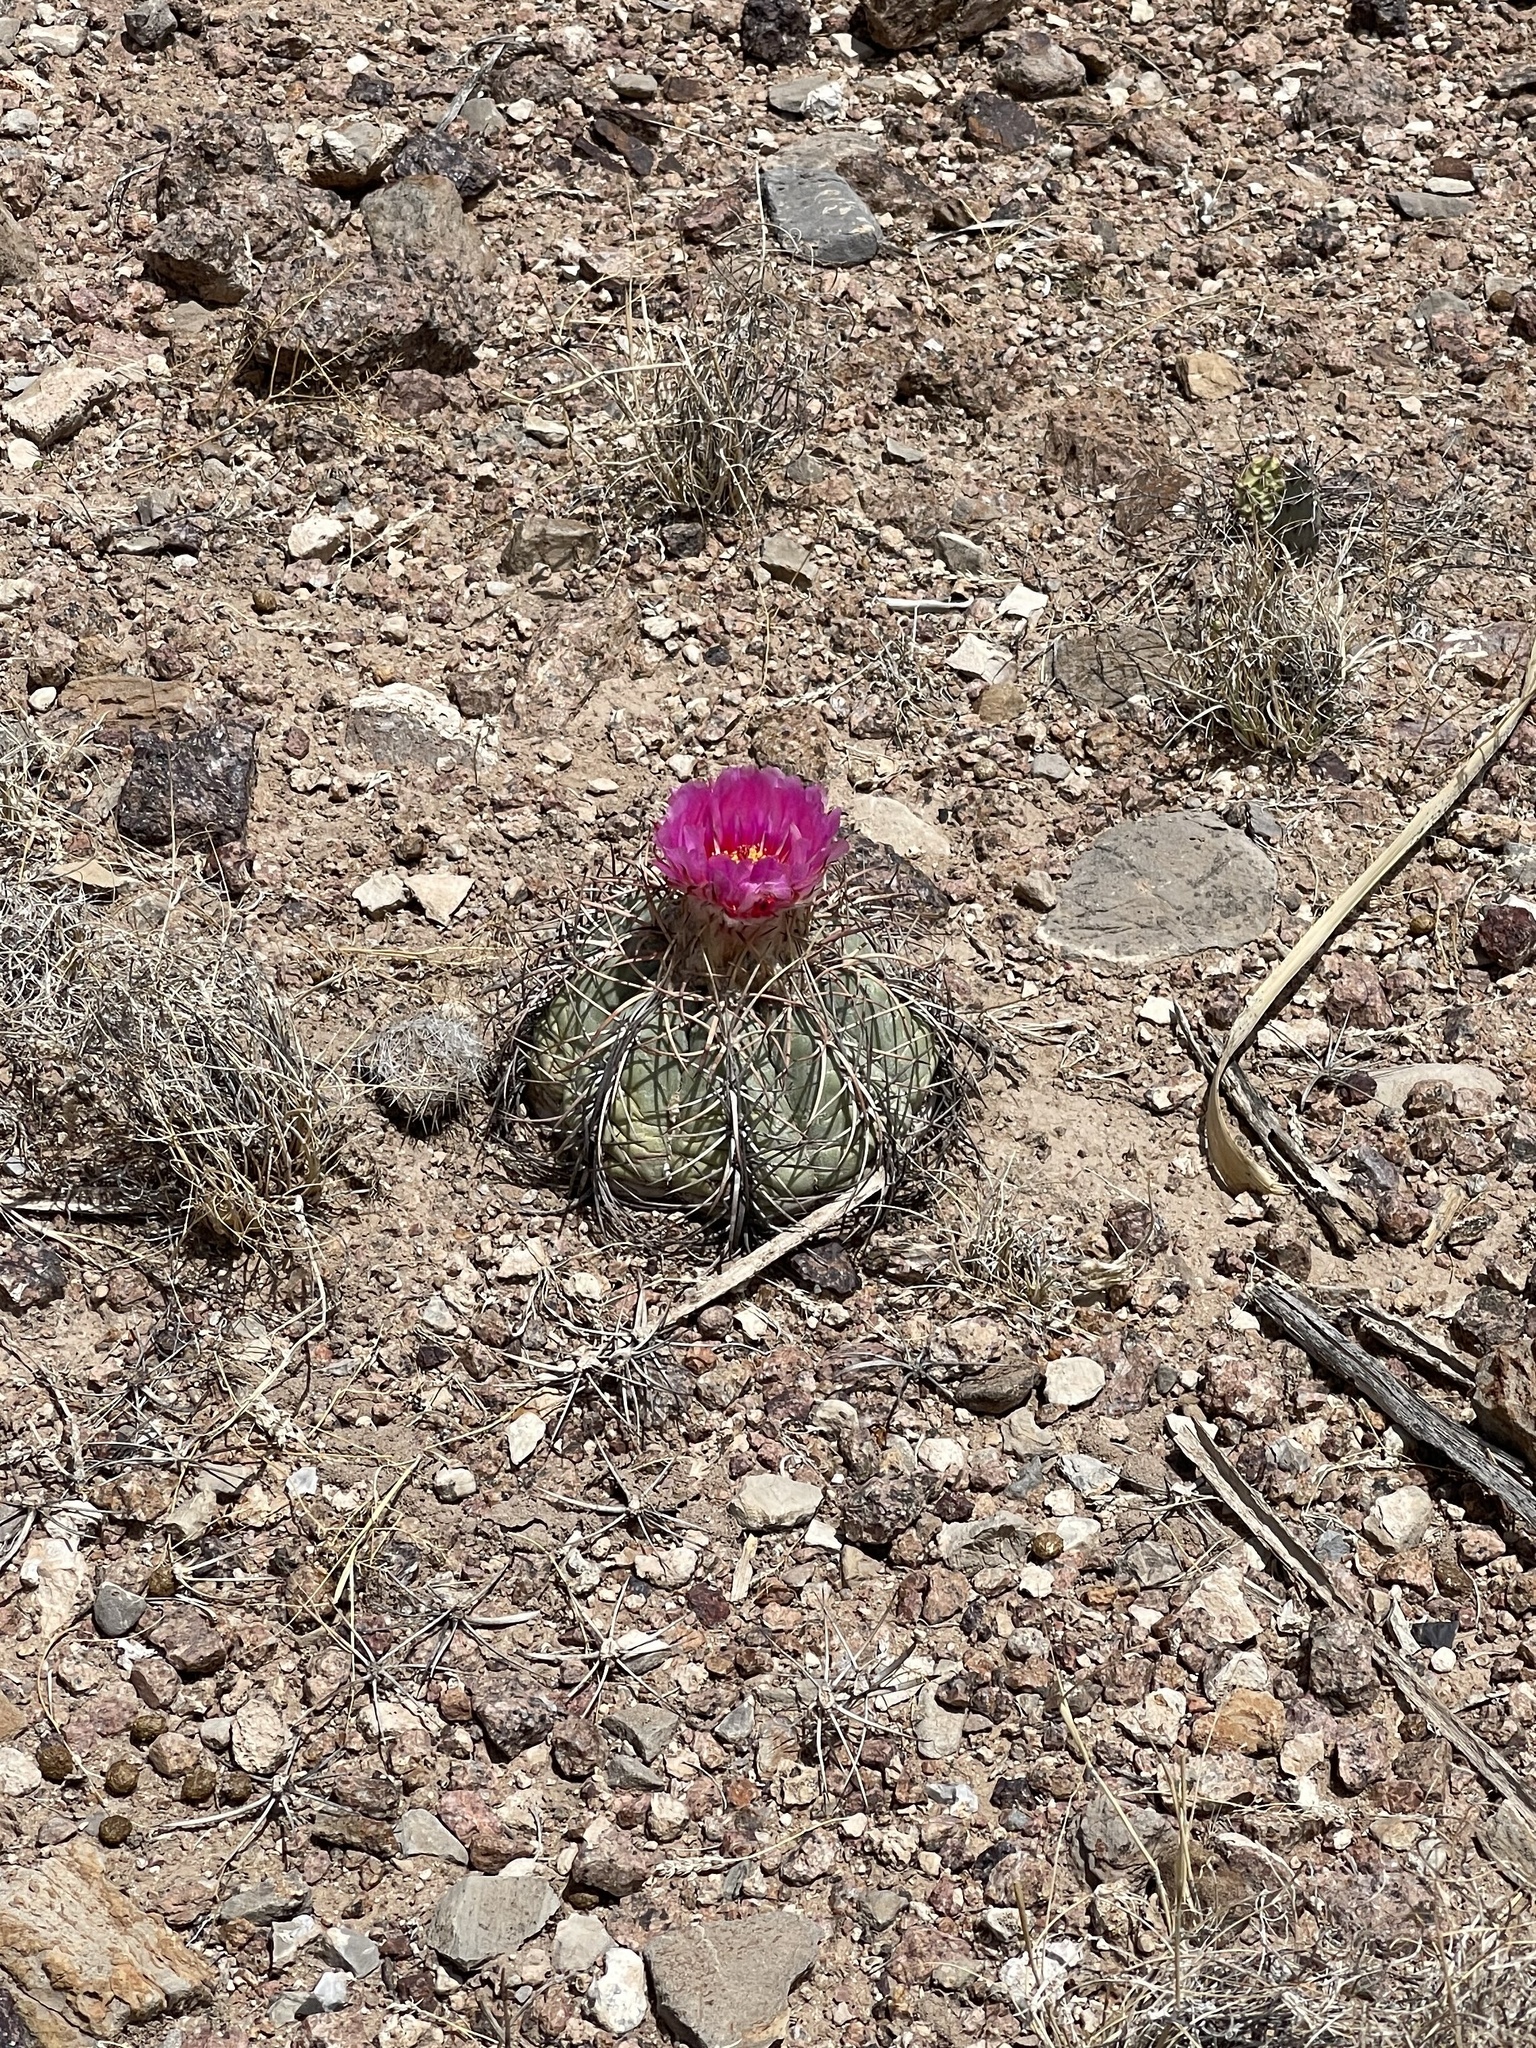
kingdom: Plantae
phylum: Tracheophyta
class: Magnoliopsida
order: Caryophyllales
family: Cactaceae
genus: Echinocactus
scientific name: Echinocactus horizonthalonius
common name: Devilshead
